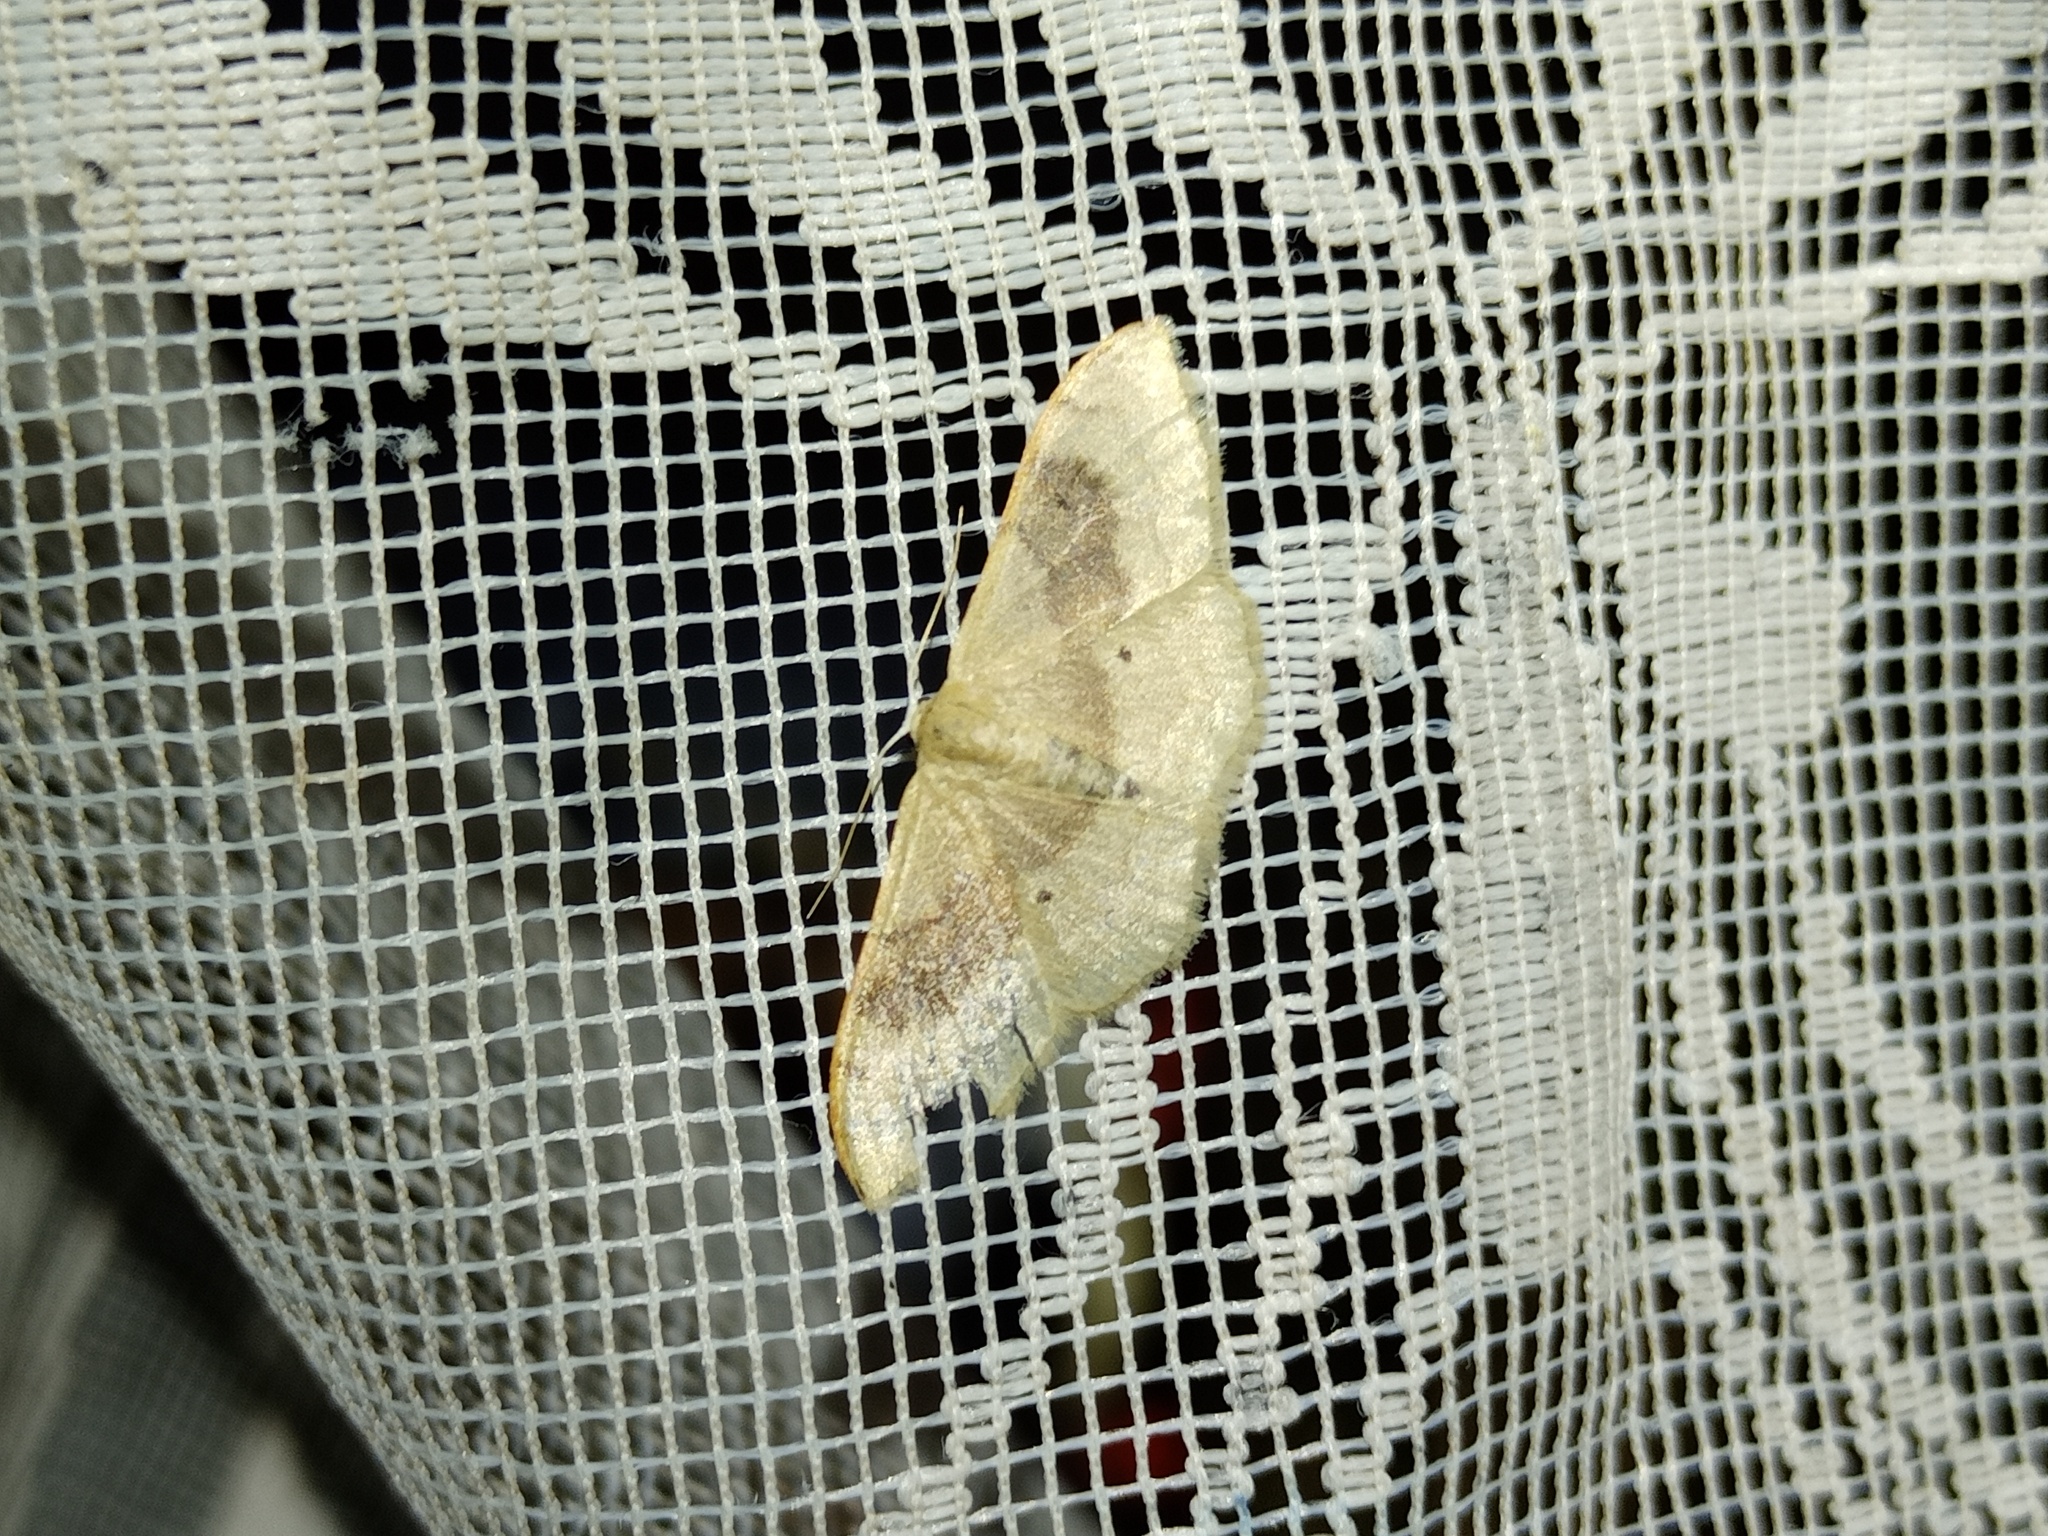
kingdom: Animalia
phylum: Arthropoda
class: Insecta
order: Lepidoptera
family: Geometridae
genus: Idaea
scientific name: Idaea degeneraria
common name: Portland ribbon wave
